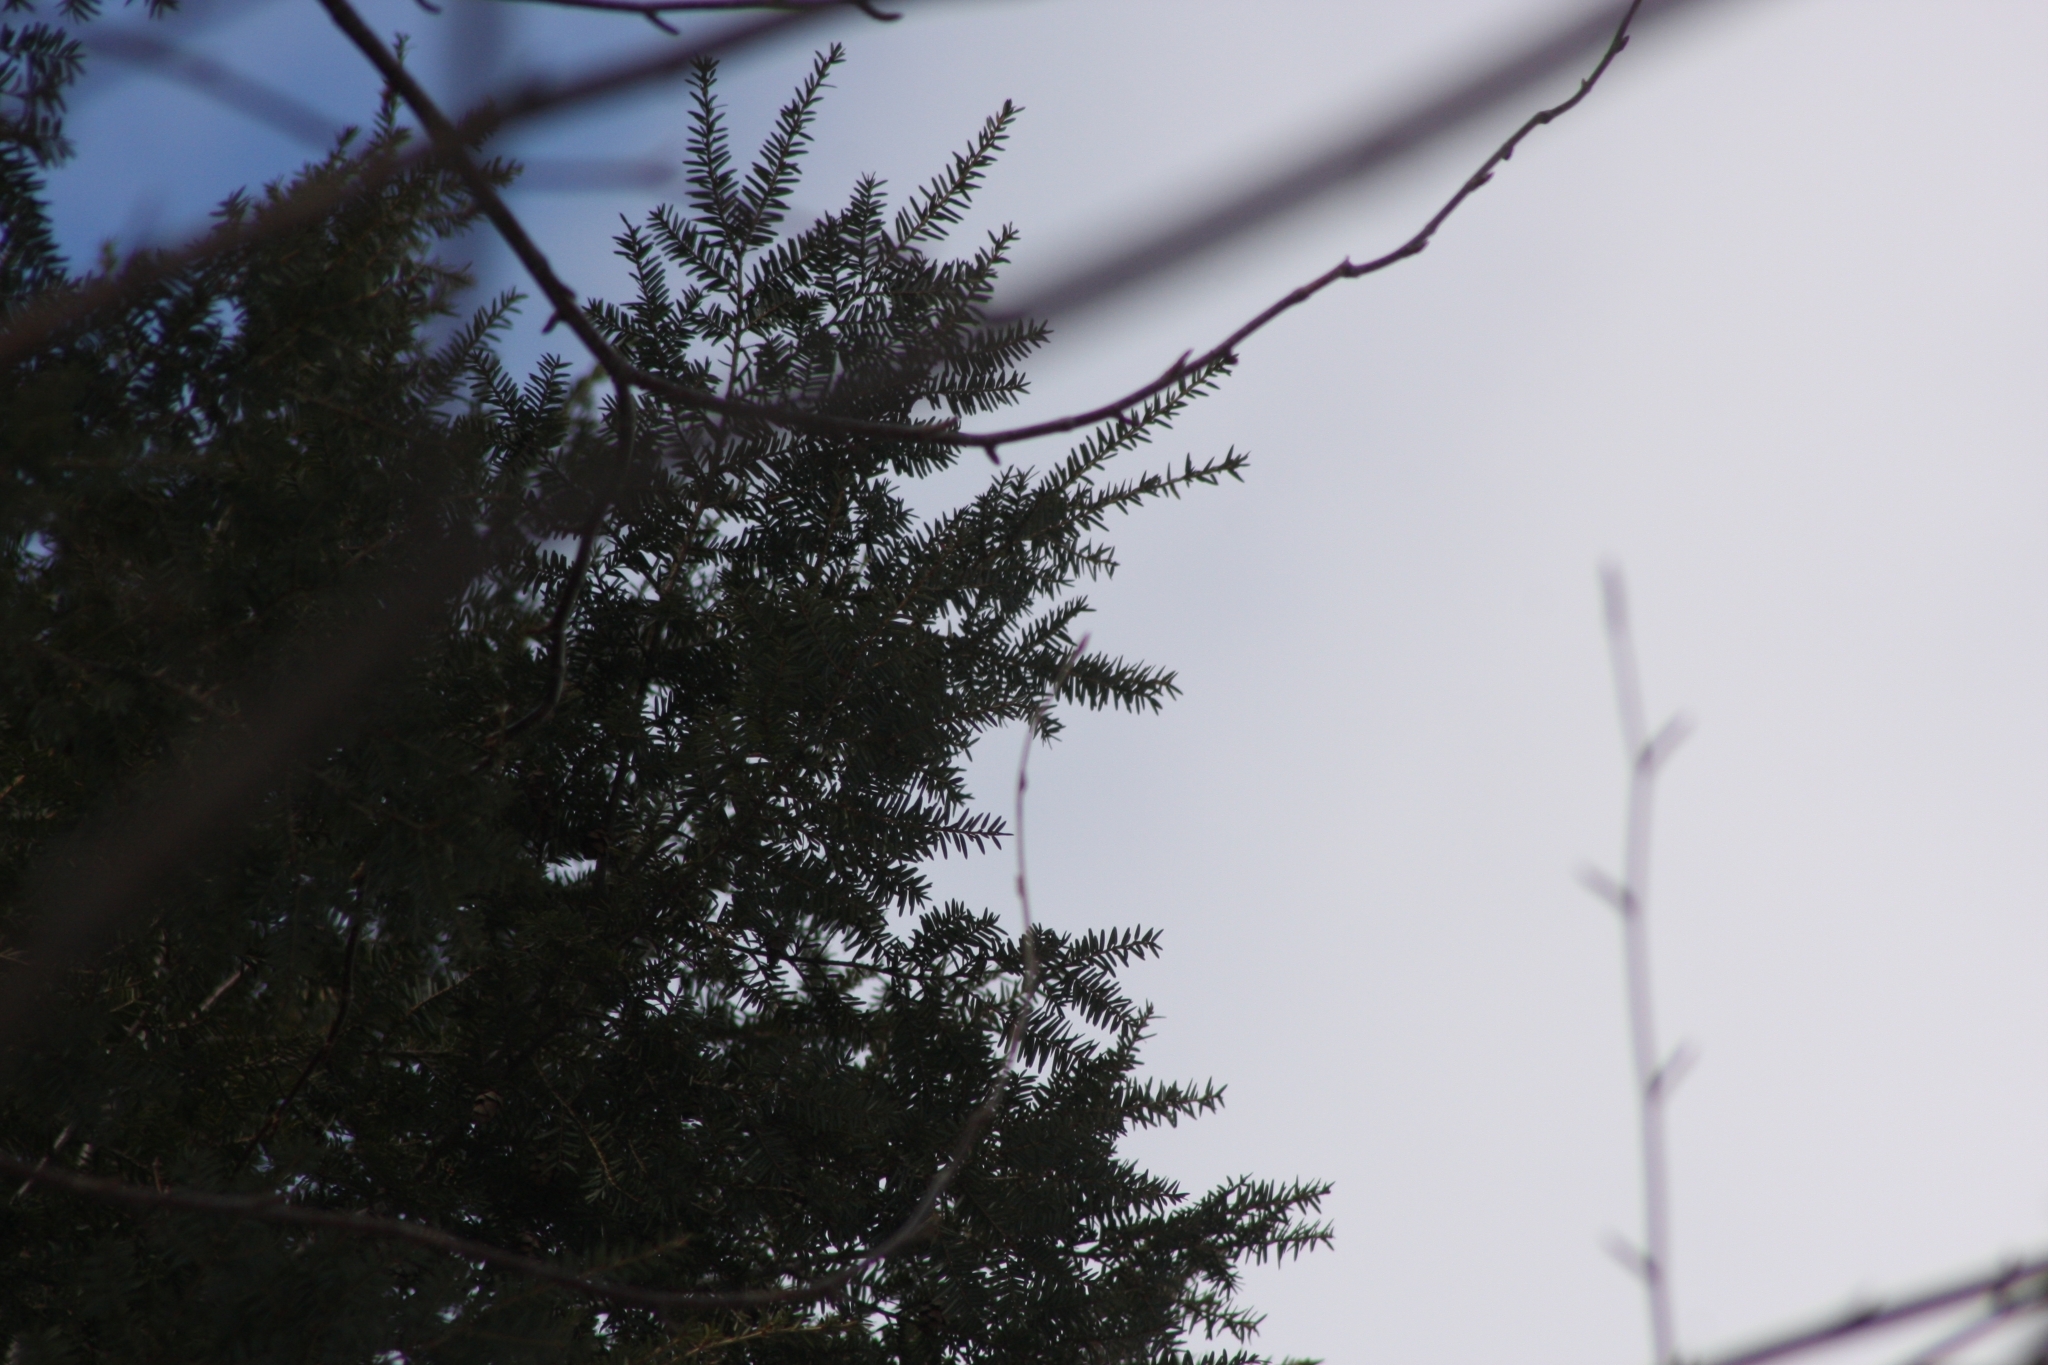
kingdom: Plantae
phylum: Tracheophyta
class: Pinopsida
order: Pinales
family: Pinaceae
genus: Tsuga
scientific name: Tsuga canadensis
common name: Eastern hemlock
